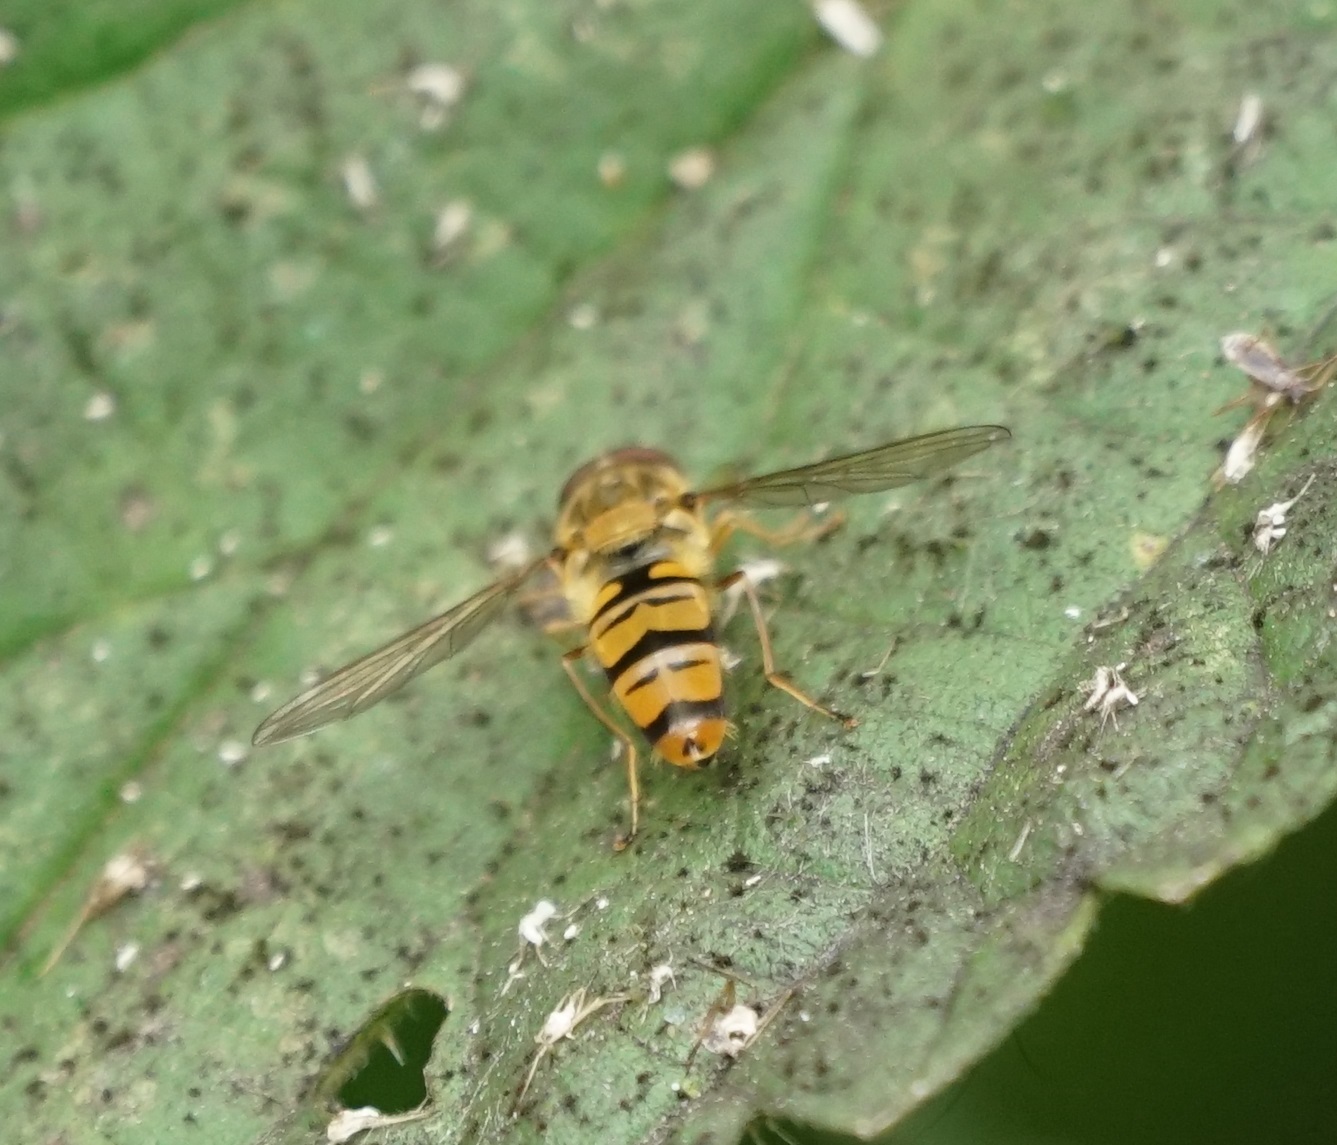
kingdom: Animalia
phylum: Arthropoda
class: Insecta
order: Diptera
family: Syrphidae
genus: Episyrphus
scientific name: Episyrphus balteatus
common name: Marmalade hoverfly
